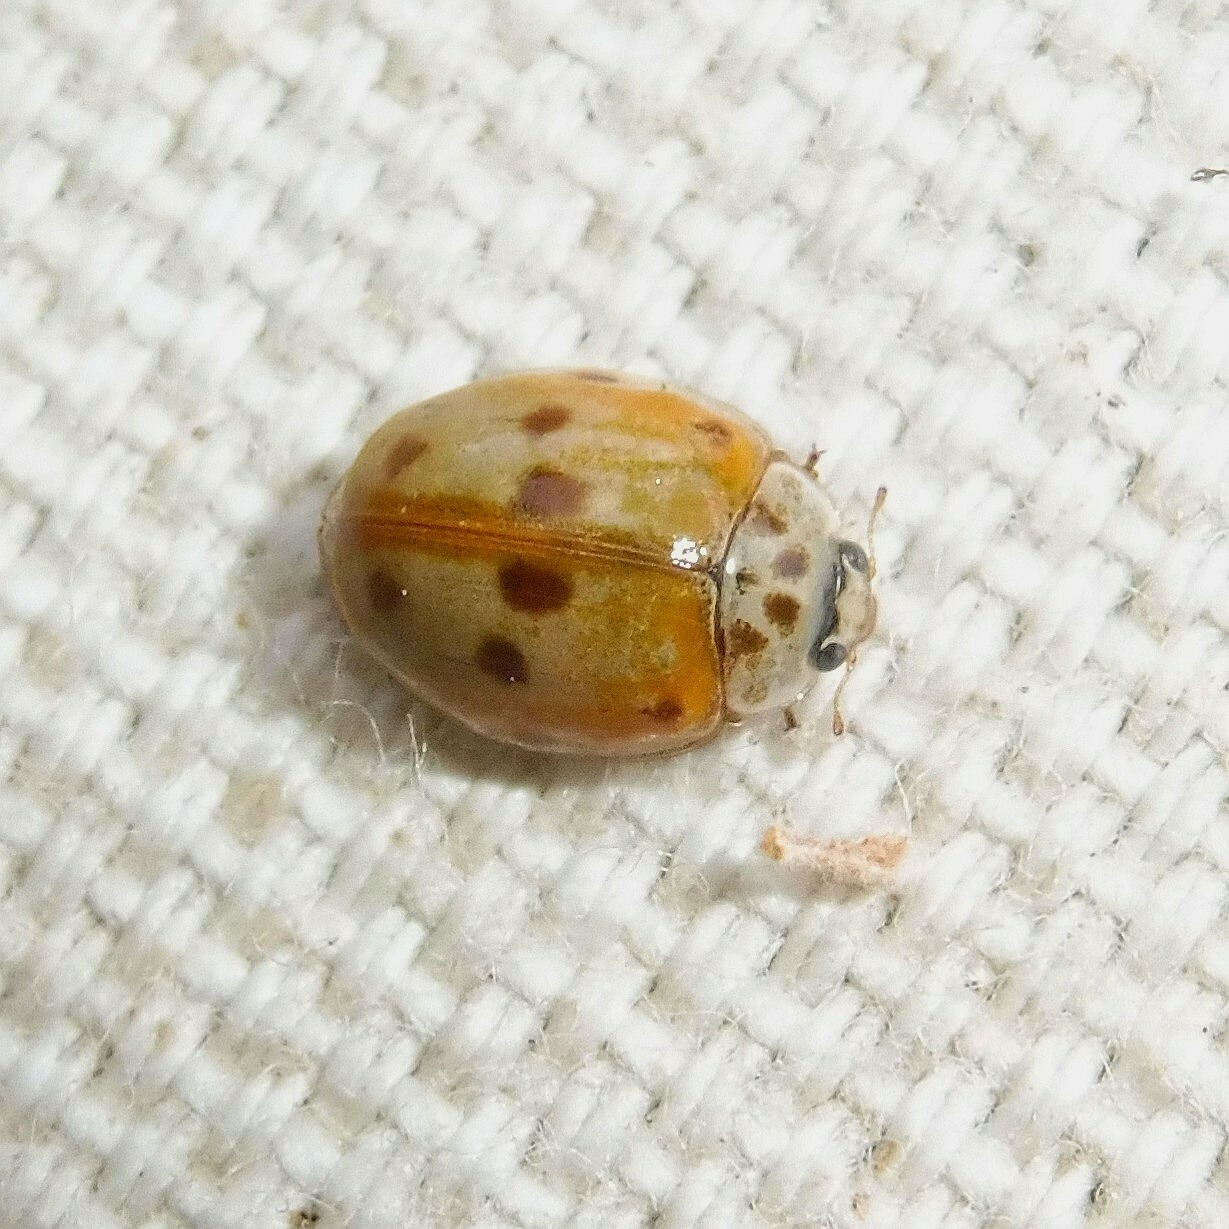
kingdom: Animalia
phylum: Arthropoda
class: Insecta
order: Coleoptera
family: Coccinellidae
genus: Adalia
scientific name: Adalia decempunctata
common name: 10-spot ladybird
